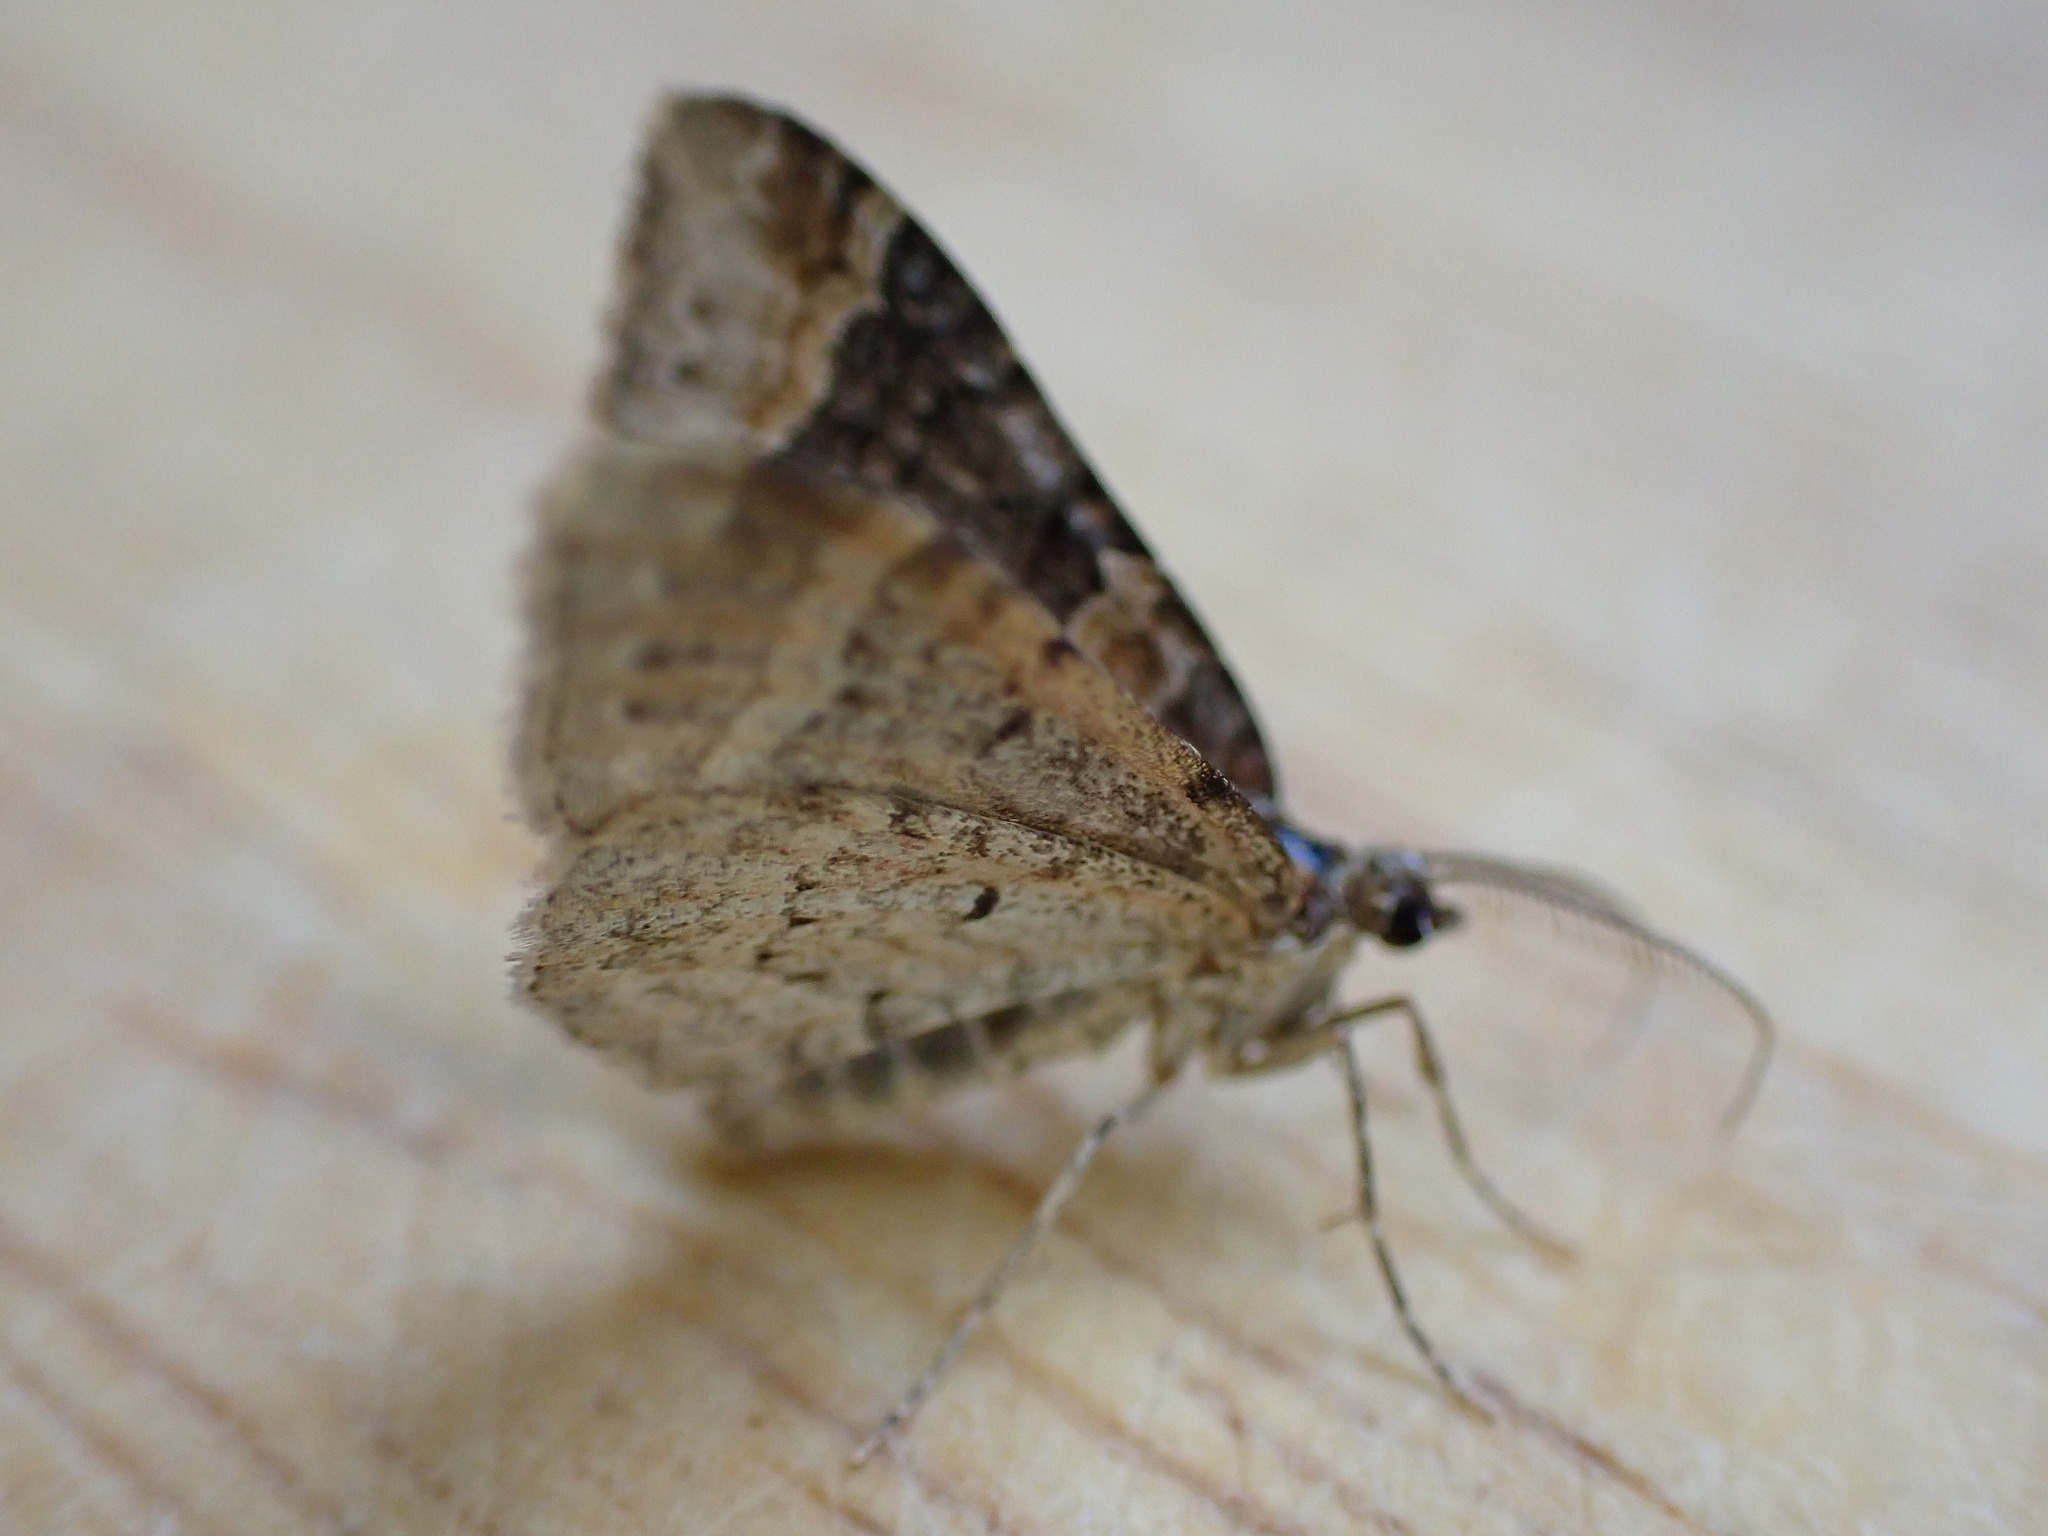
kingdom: Animalia
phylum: Arthropoda
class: Insecta
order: Lepidoptera
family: Geometridae
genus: Xanthorhoe
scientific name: Xanthorhoe ferrugata
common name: Dark-barred twin-spot carpet
